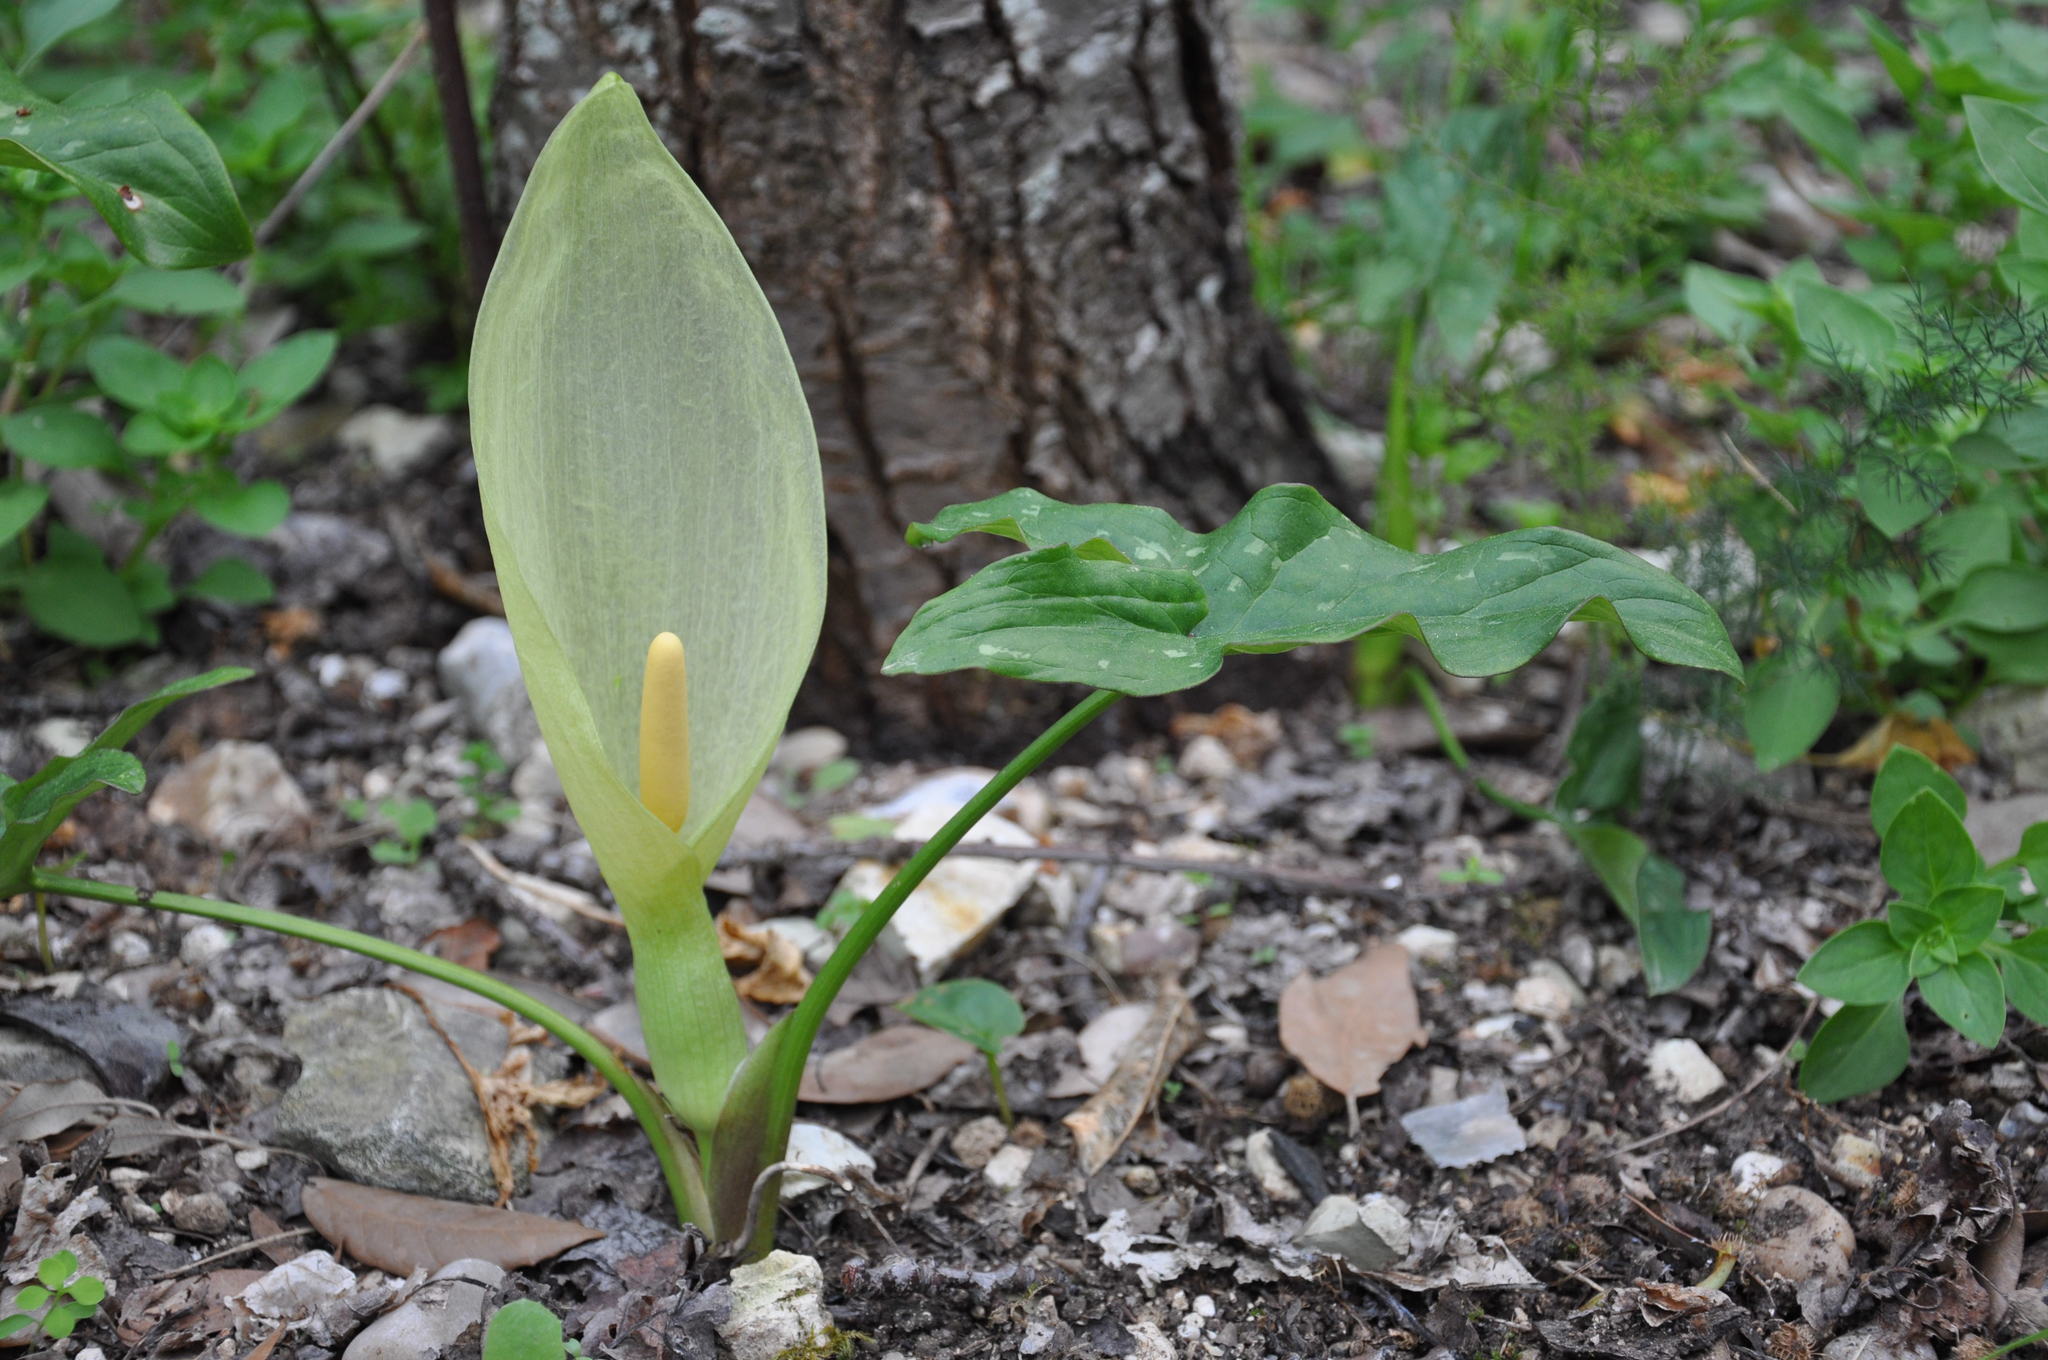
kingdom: Plantae
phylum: Tracheophyta
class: Liliopsida
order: Alismatales
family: Araceae
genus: Arum
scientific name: Arum italicum
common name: Italian lords-and-ladies
